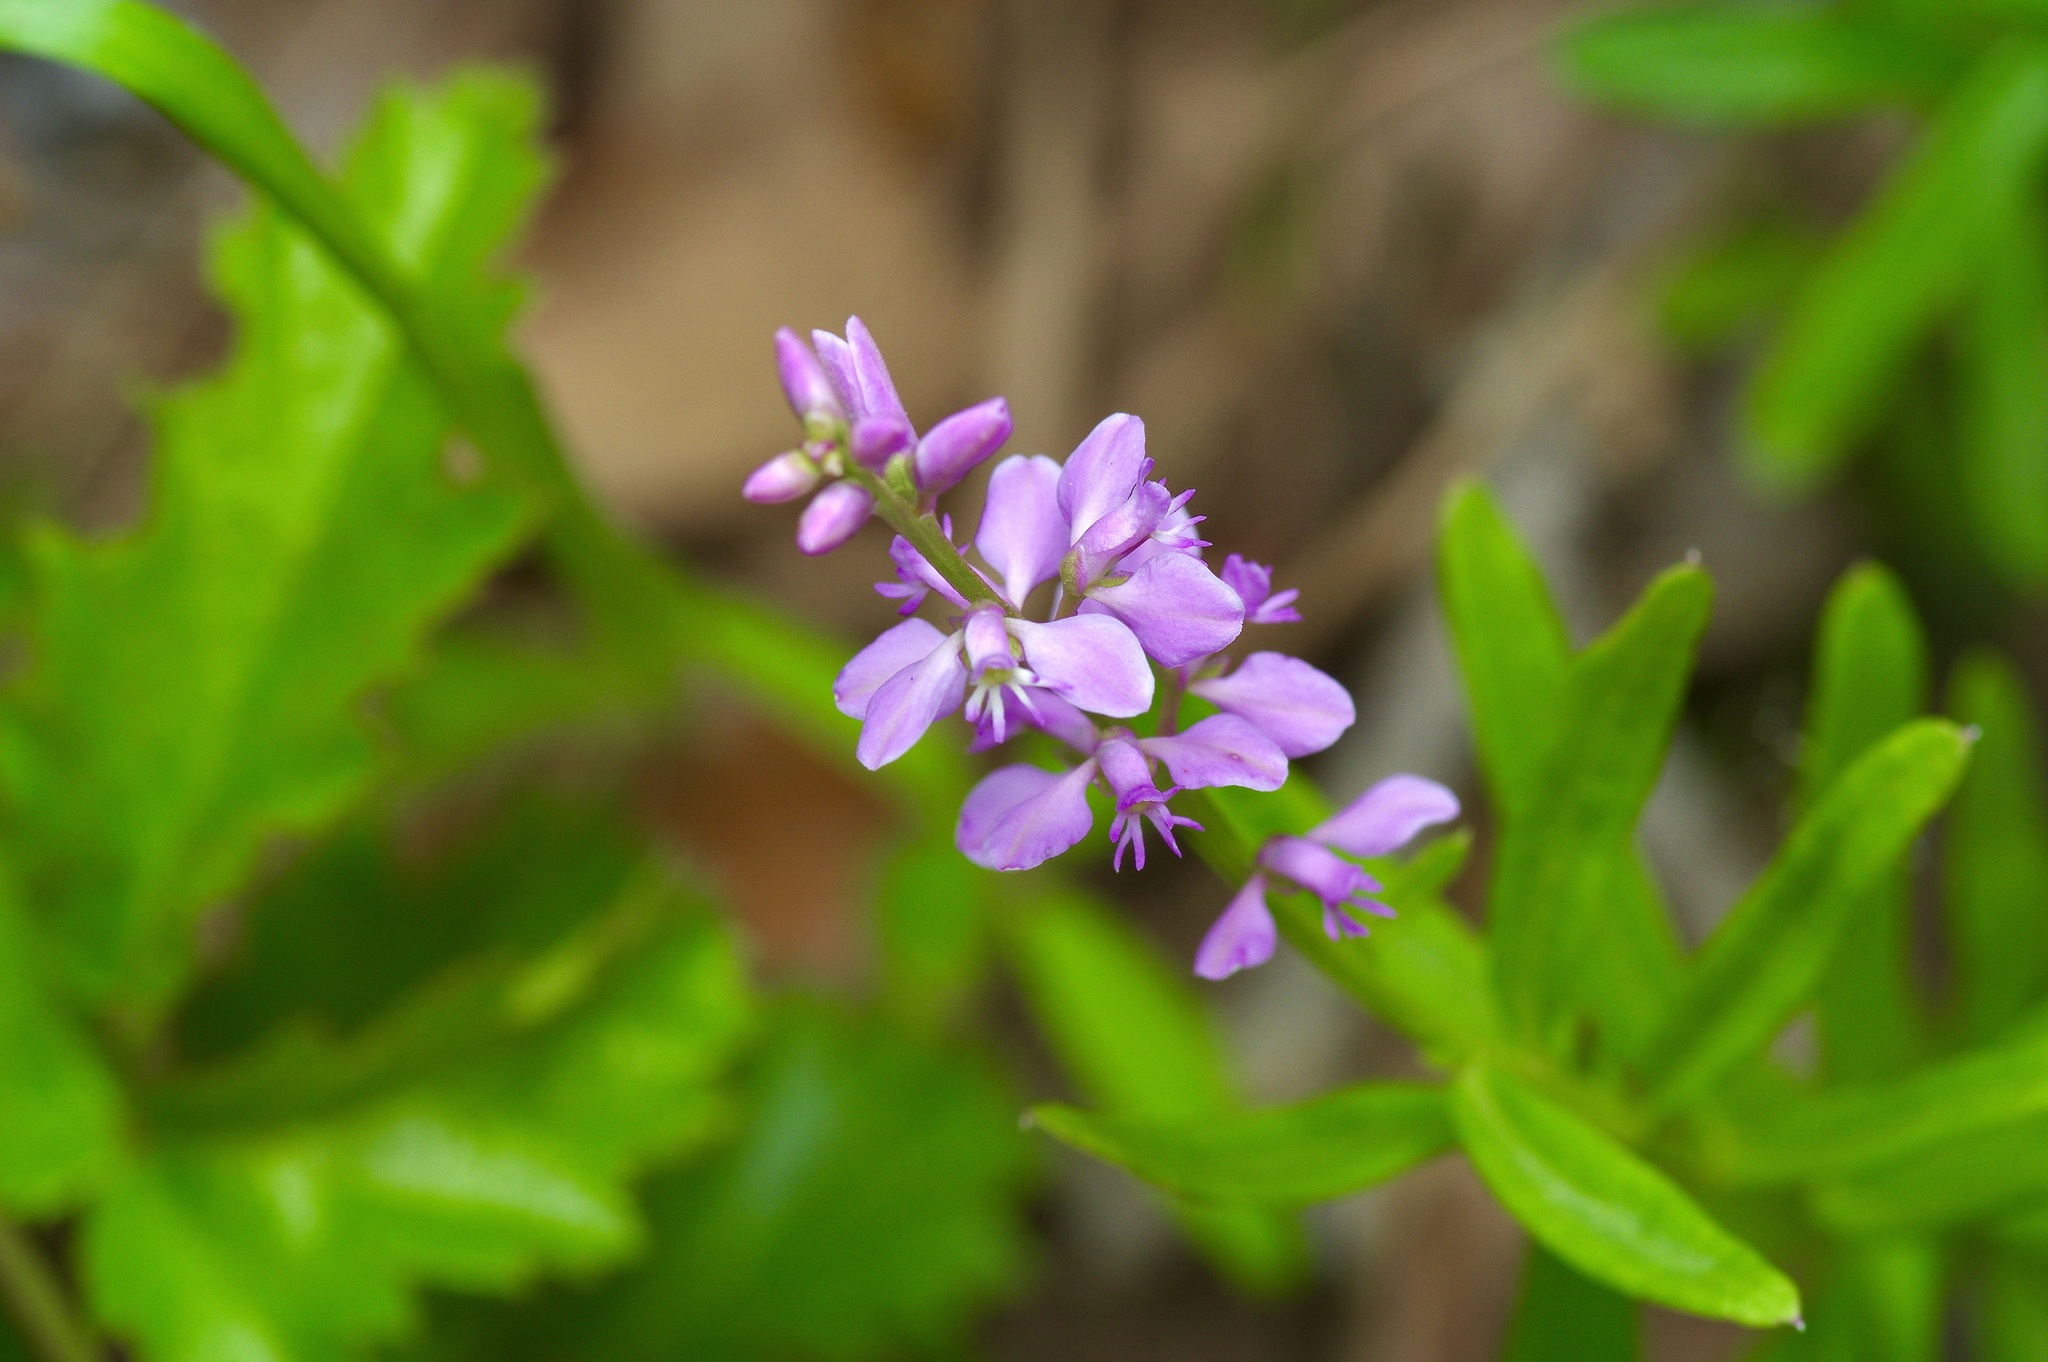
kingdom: Plantae
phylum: Tracheophyta
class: Magnoliopsida
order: Fabales
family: Polygalaceae
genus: Polygala
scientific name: Polygala polygama
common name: Bitter milkwort
